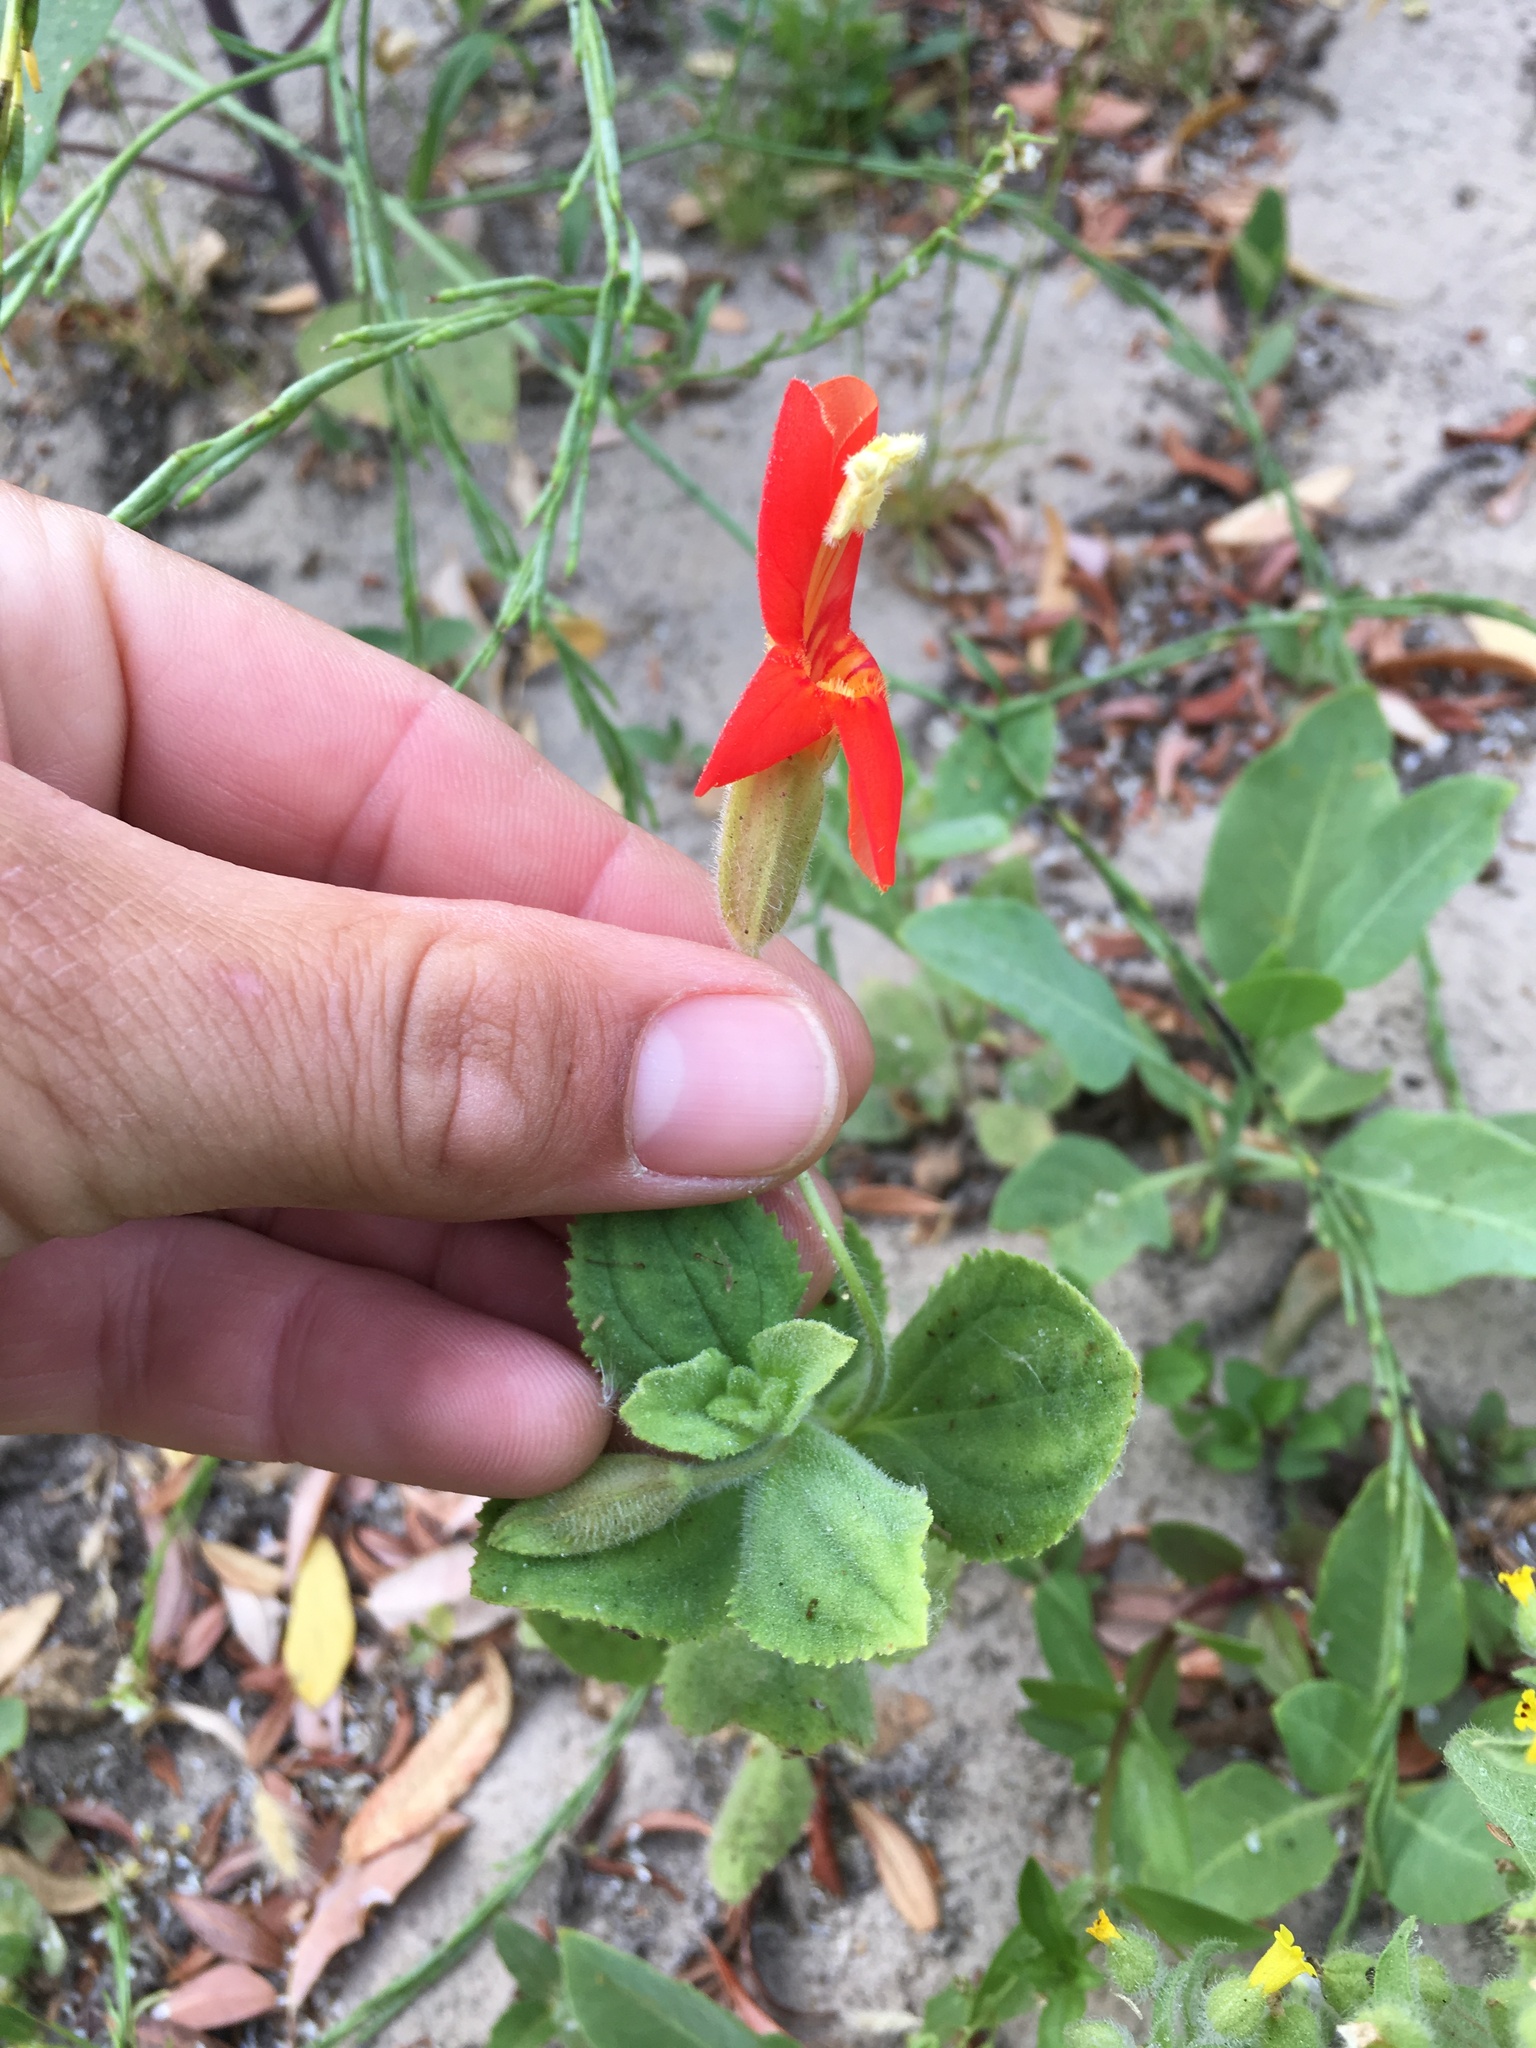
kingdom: Plantae
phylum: Tracheophyta
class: Magnoliopsida
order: Lamiales
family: Phrymaceae
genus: Erythranthe
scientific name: Erythranthe cardinalis
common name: Scarlet monkey-flower
